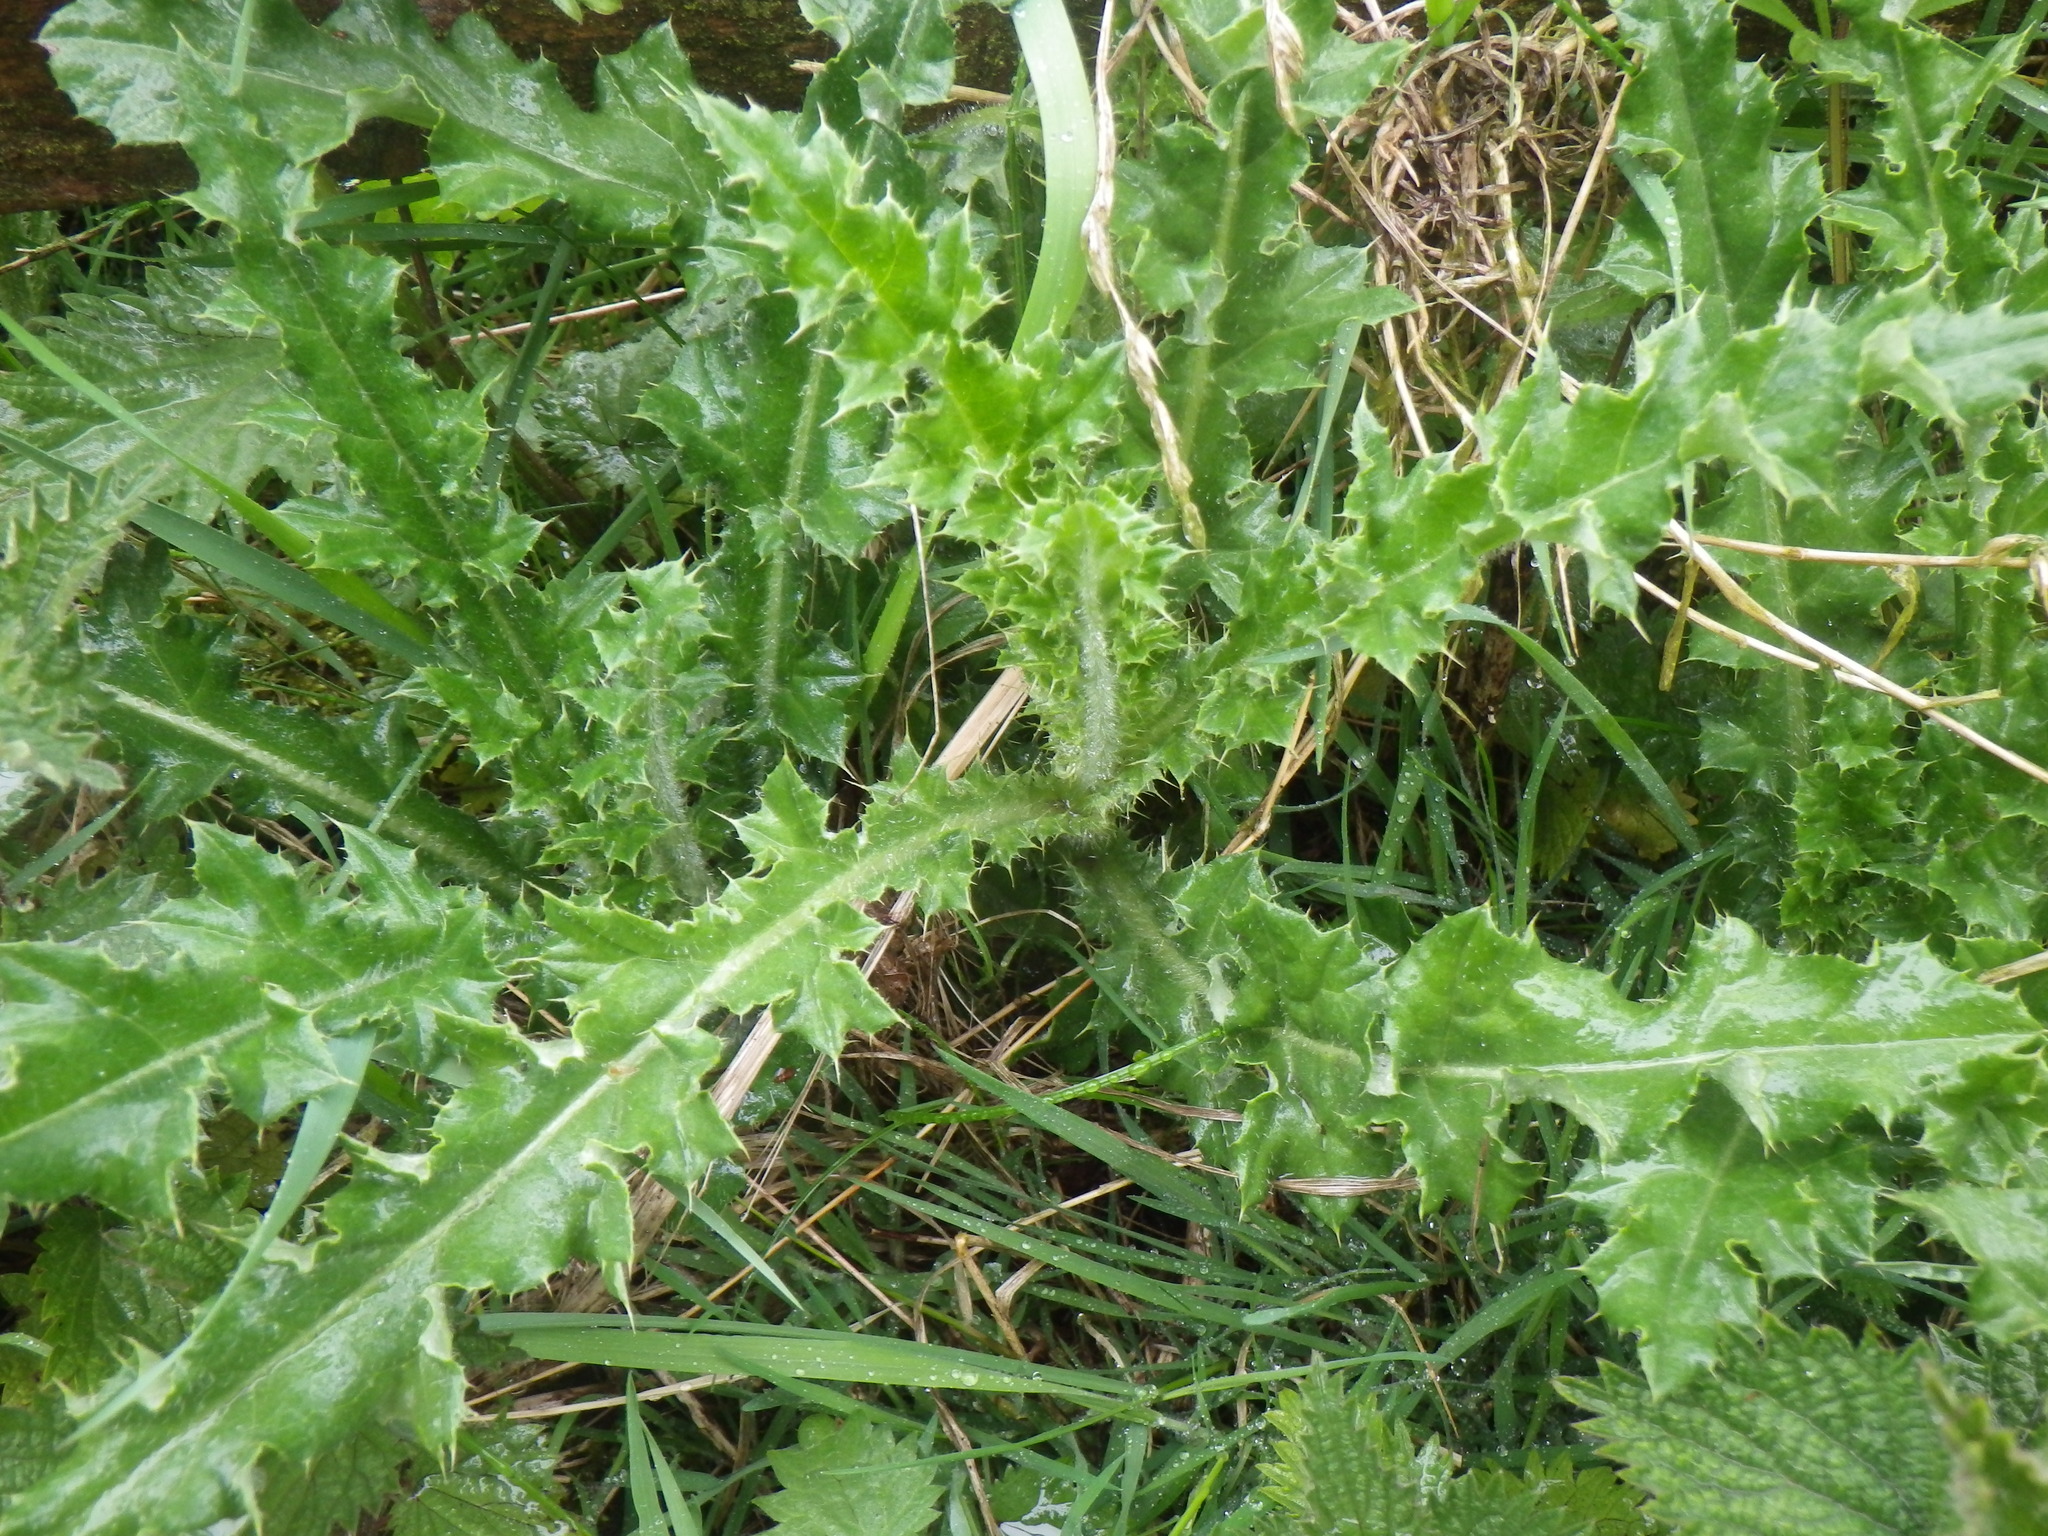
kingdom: Plantae
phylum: Tracheophyta
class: Magnoliopsida
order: Asterales
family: Asteraceae
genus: Cirsium
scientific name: Cirsium arvense
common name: Creeping thistle
